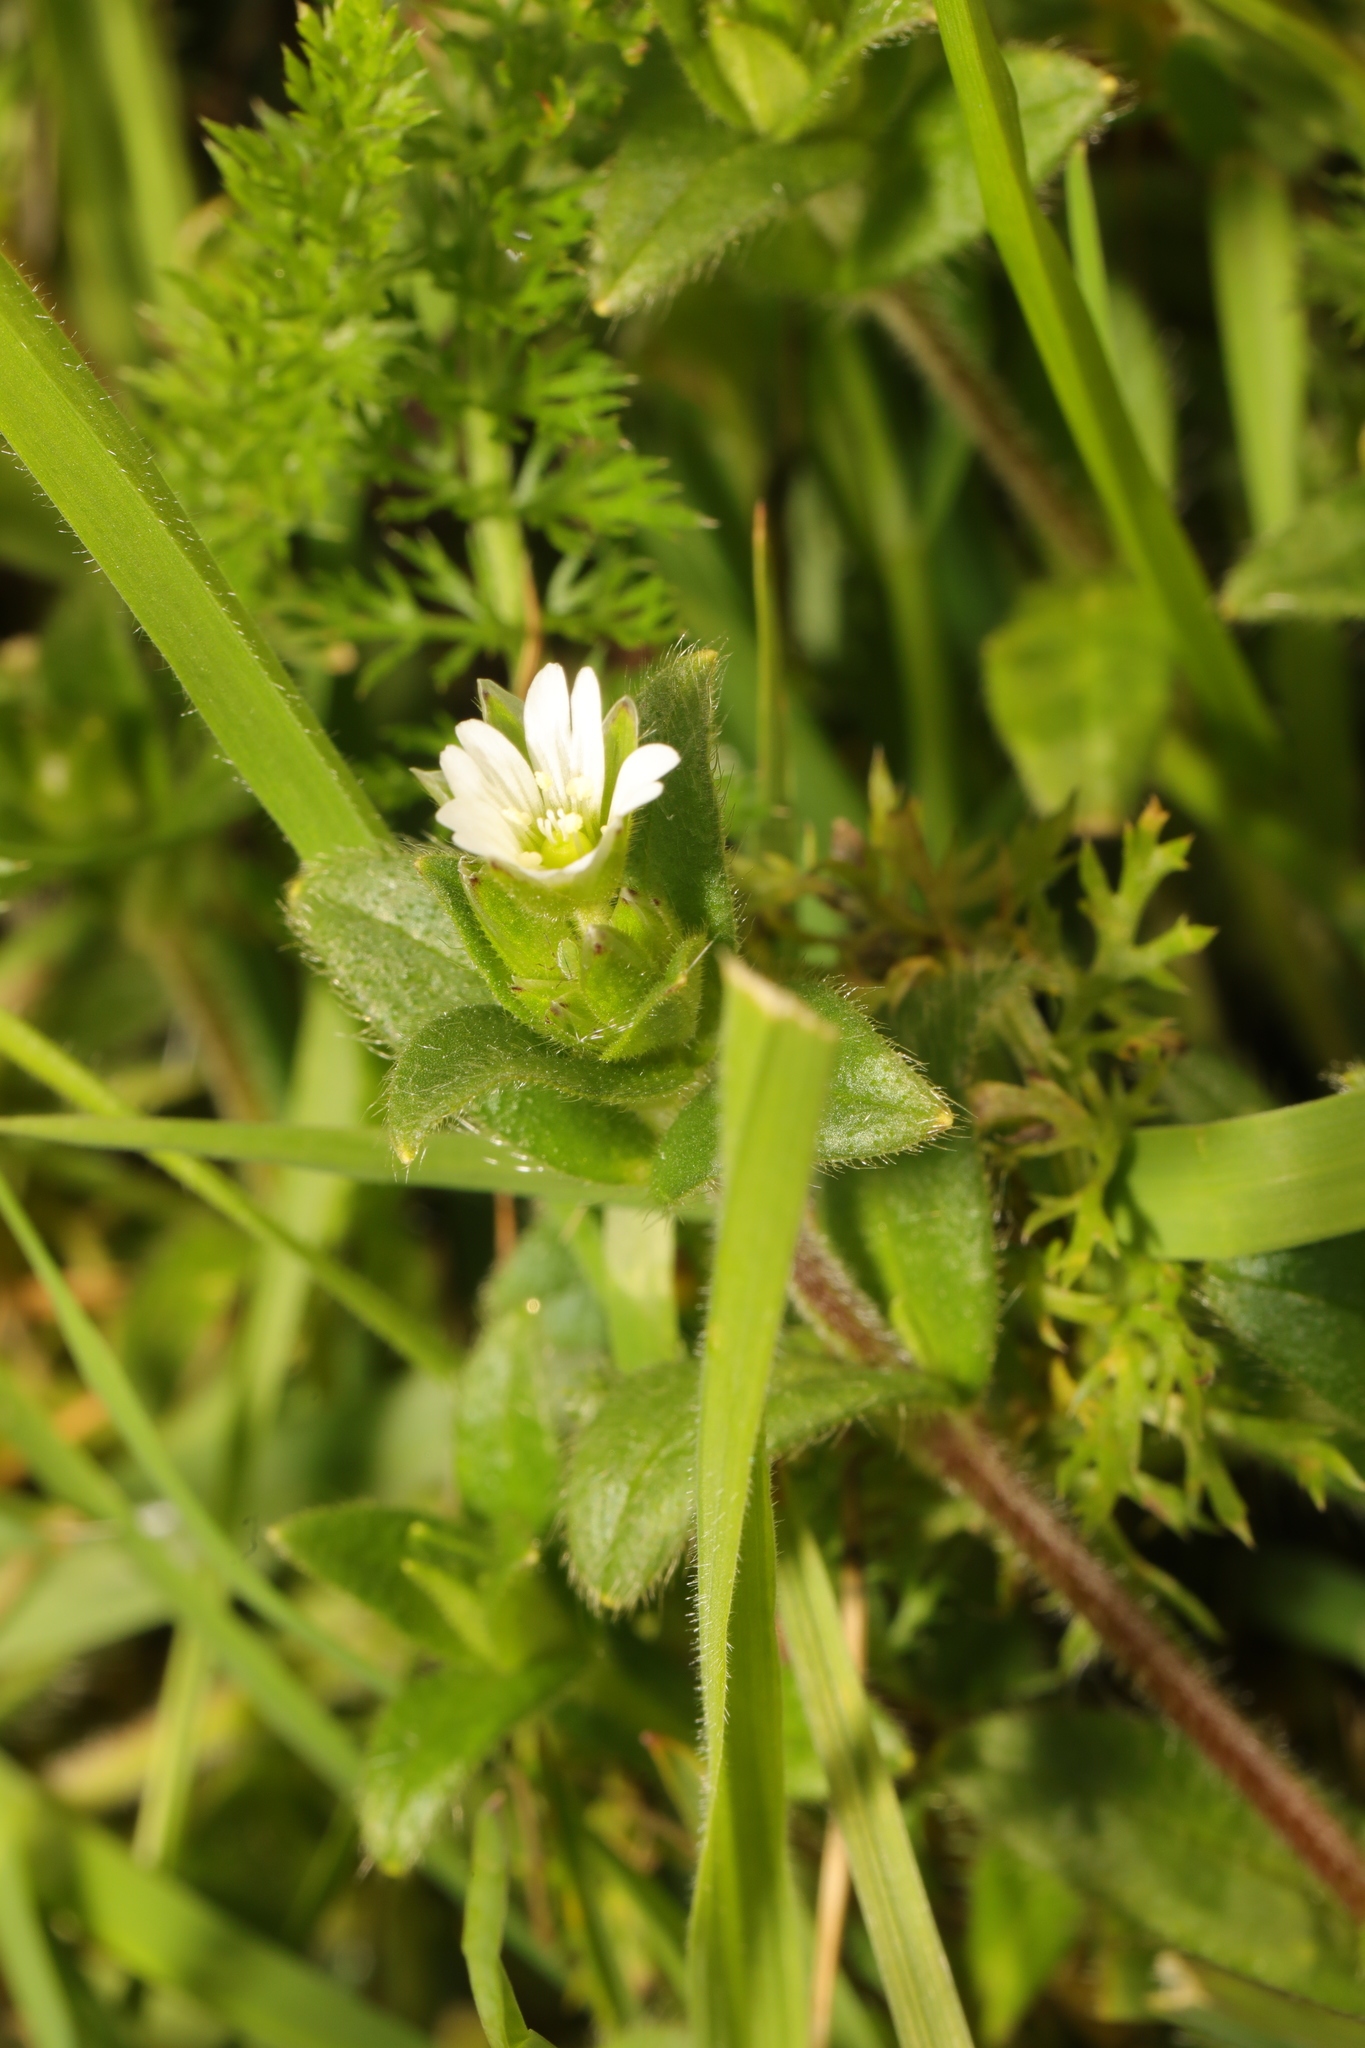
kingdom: Plantae
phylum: Tracheophyta
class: Magnoliopsida
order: Caryophyllales
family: Caryophyllaceae
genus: Cerastium
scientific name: Cerastium fontanum
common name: Common mouse-ear
